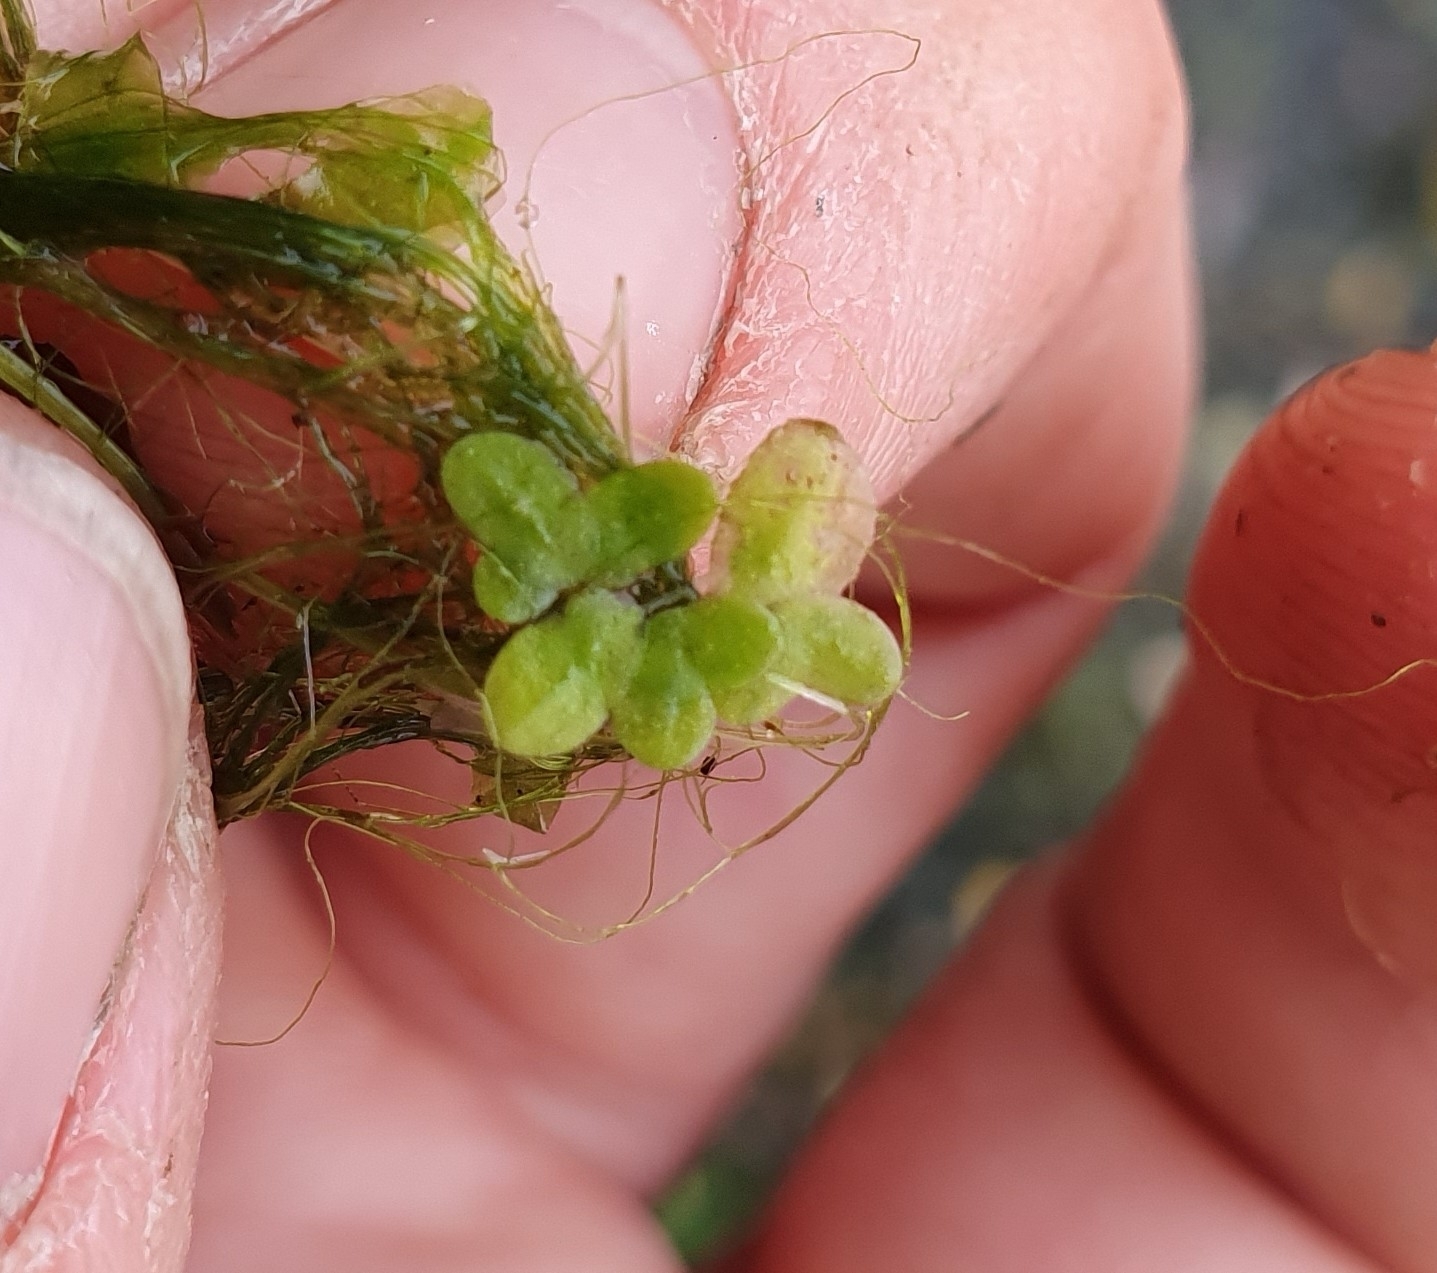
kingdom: Plantae
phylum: Tracheophyta
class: Liliopsida
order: Alismatales
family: Araceae
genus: Lemna
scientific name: Lemna minor
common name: Common duckweed
